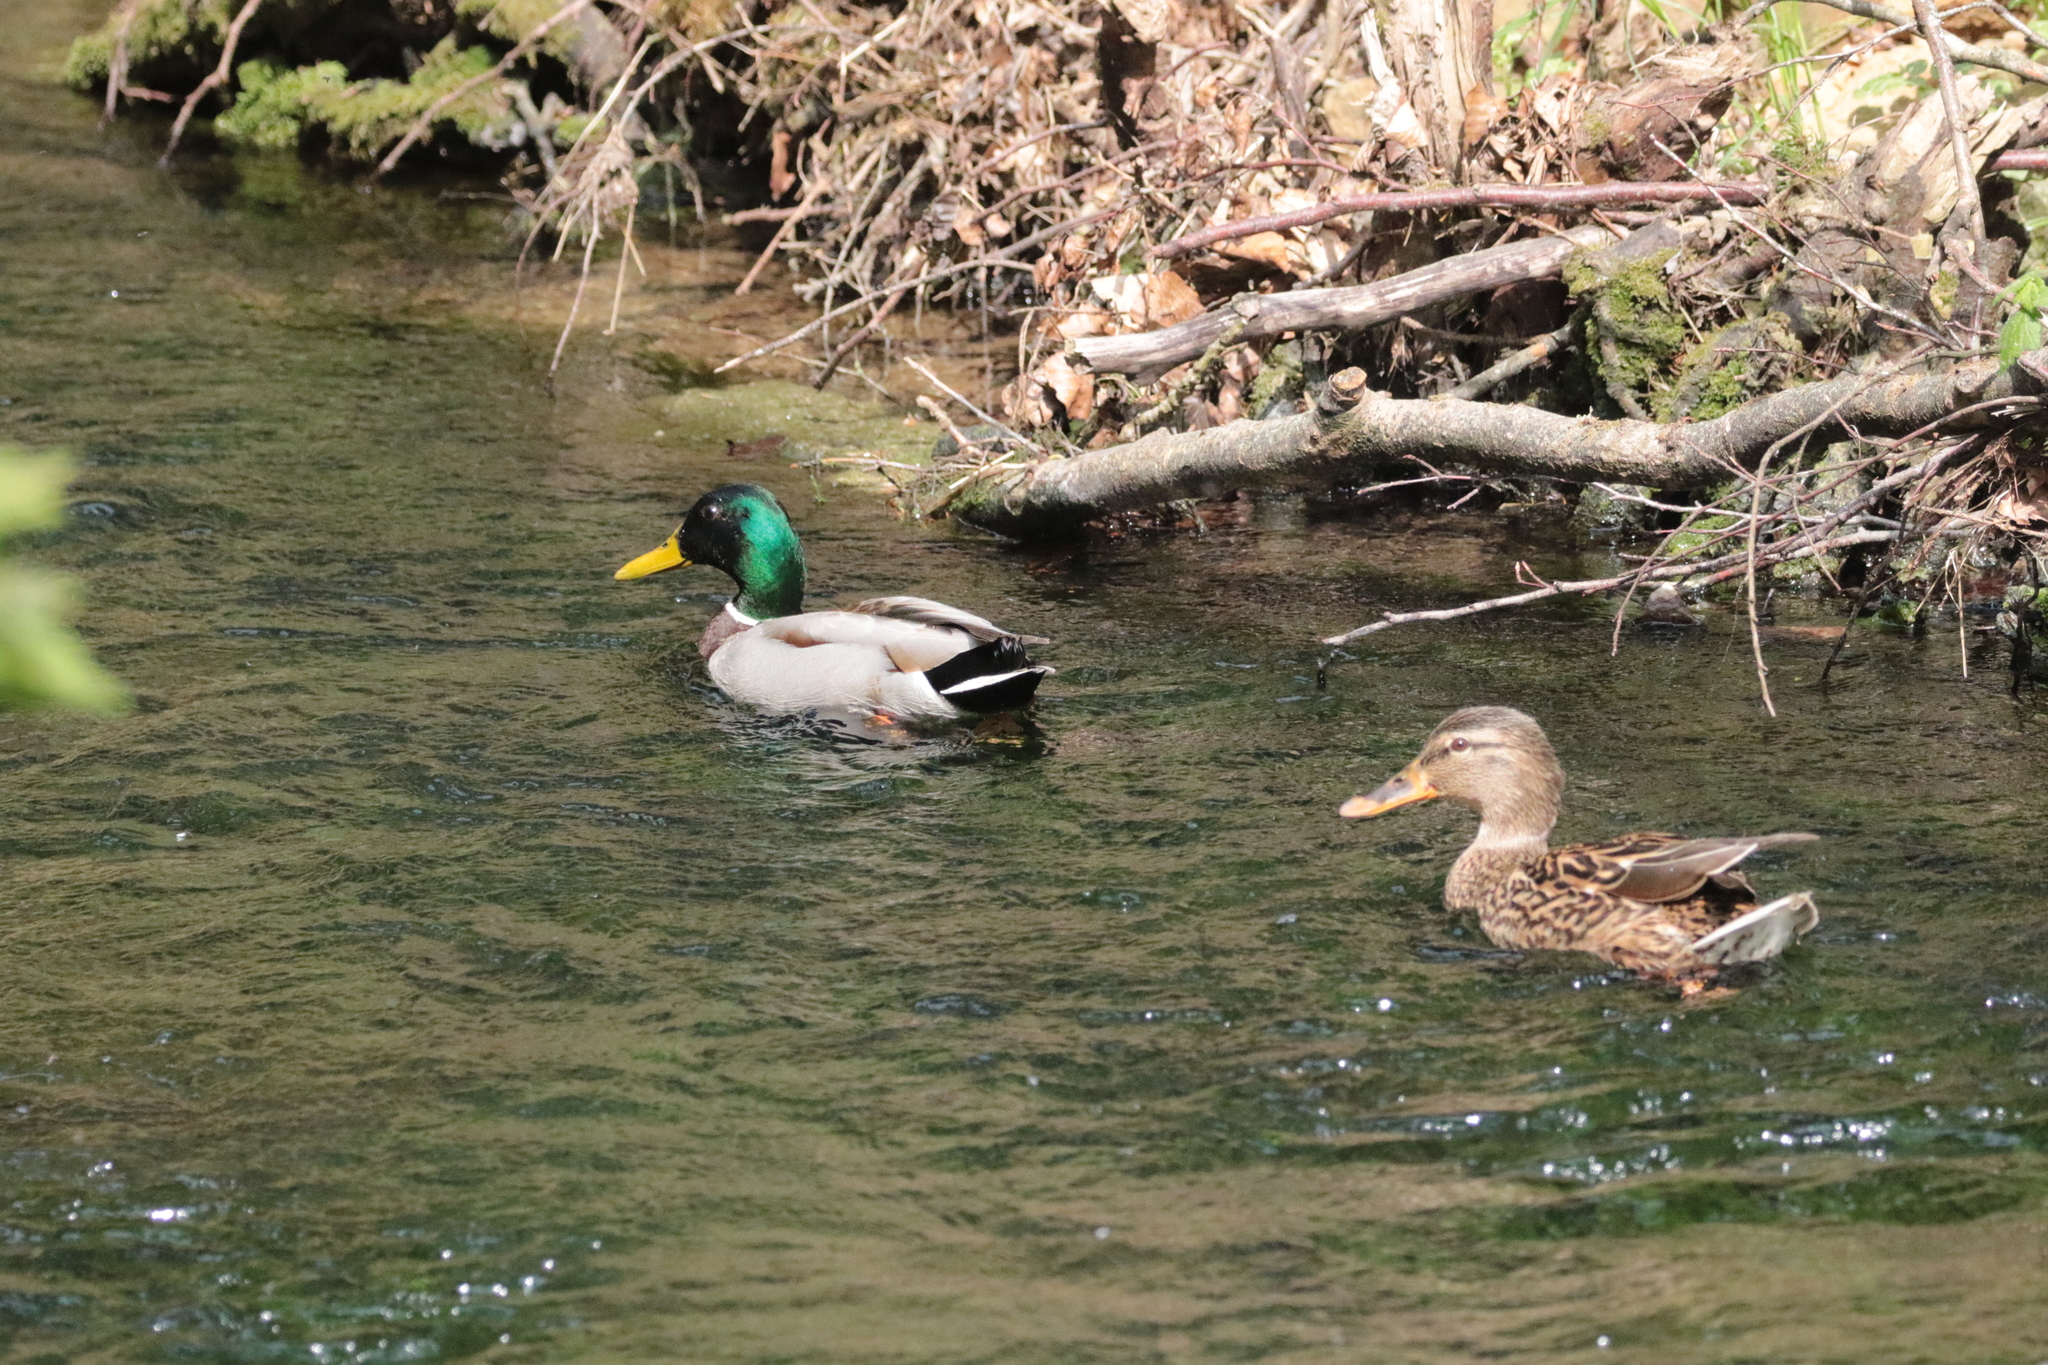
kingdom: Animalia
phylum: Chordata
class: Aves
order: Anseriformes
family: Anatidae
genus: Anas
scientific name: Anas platyrhynchos
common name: Mallard
